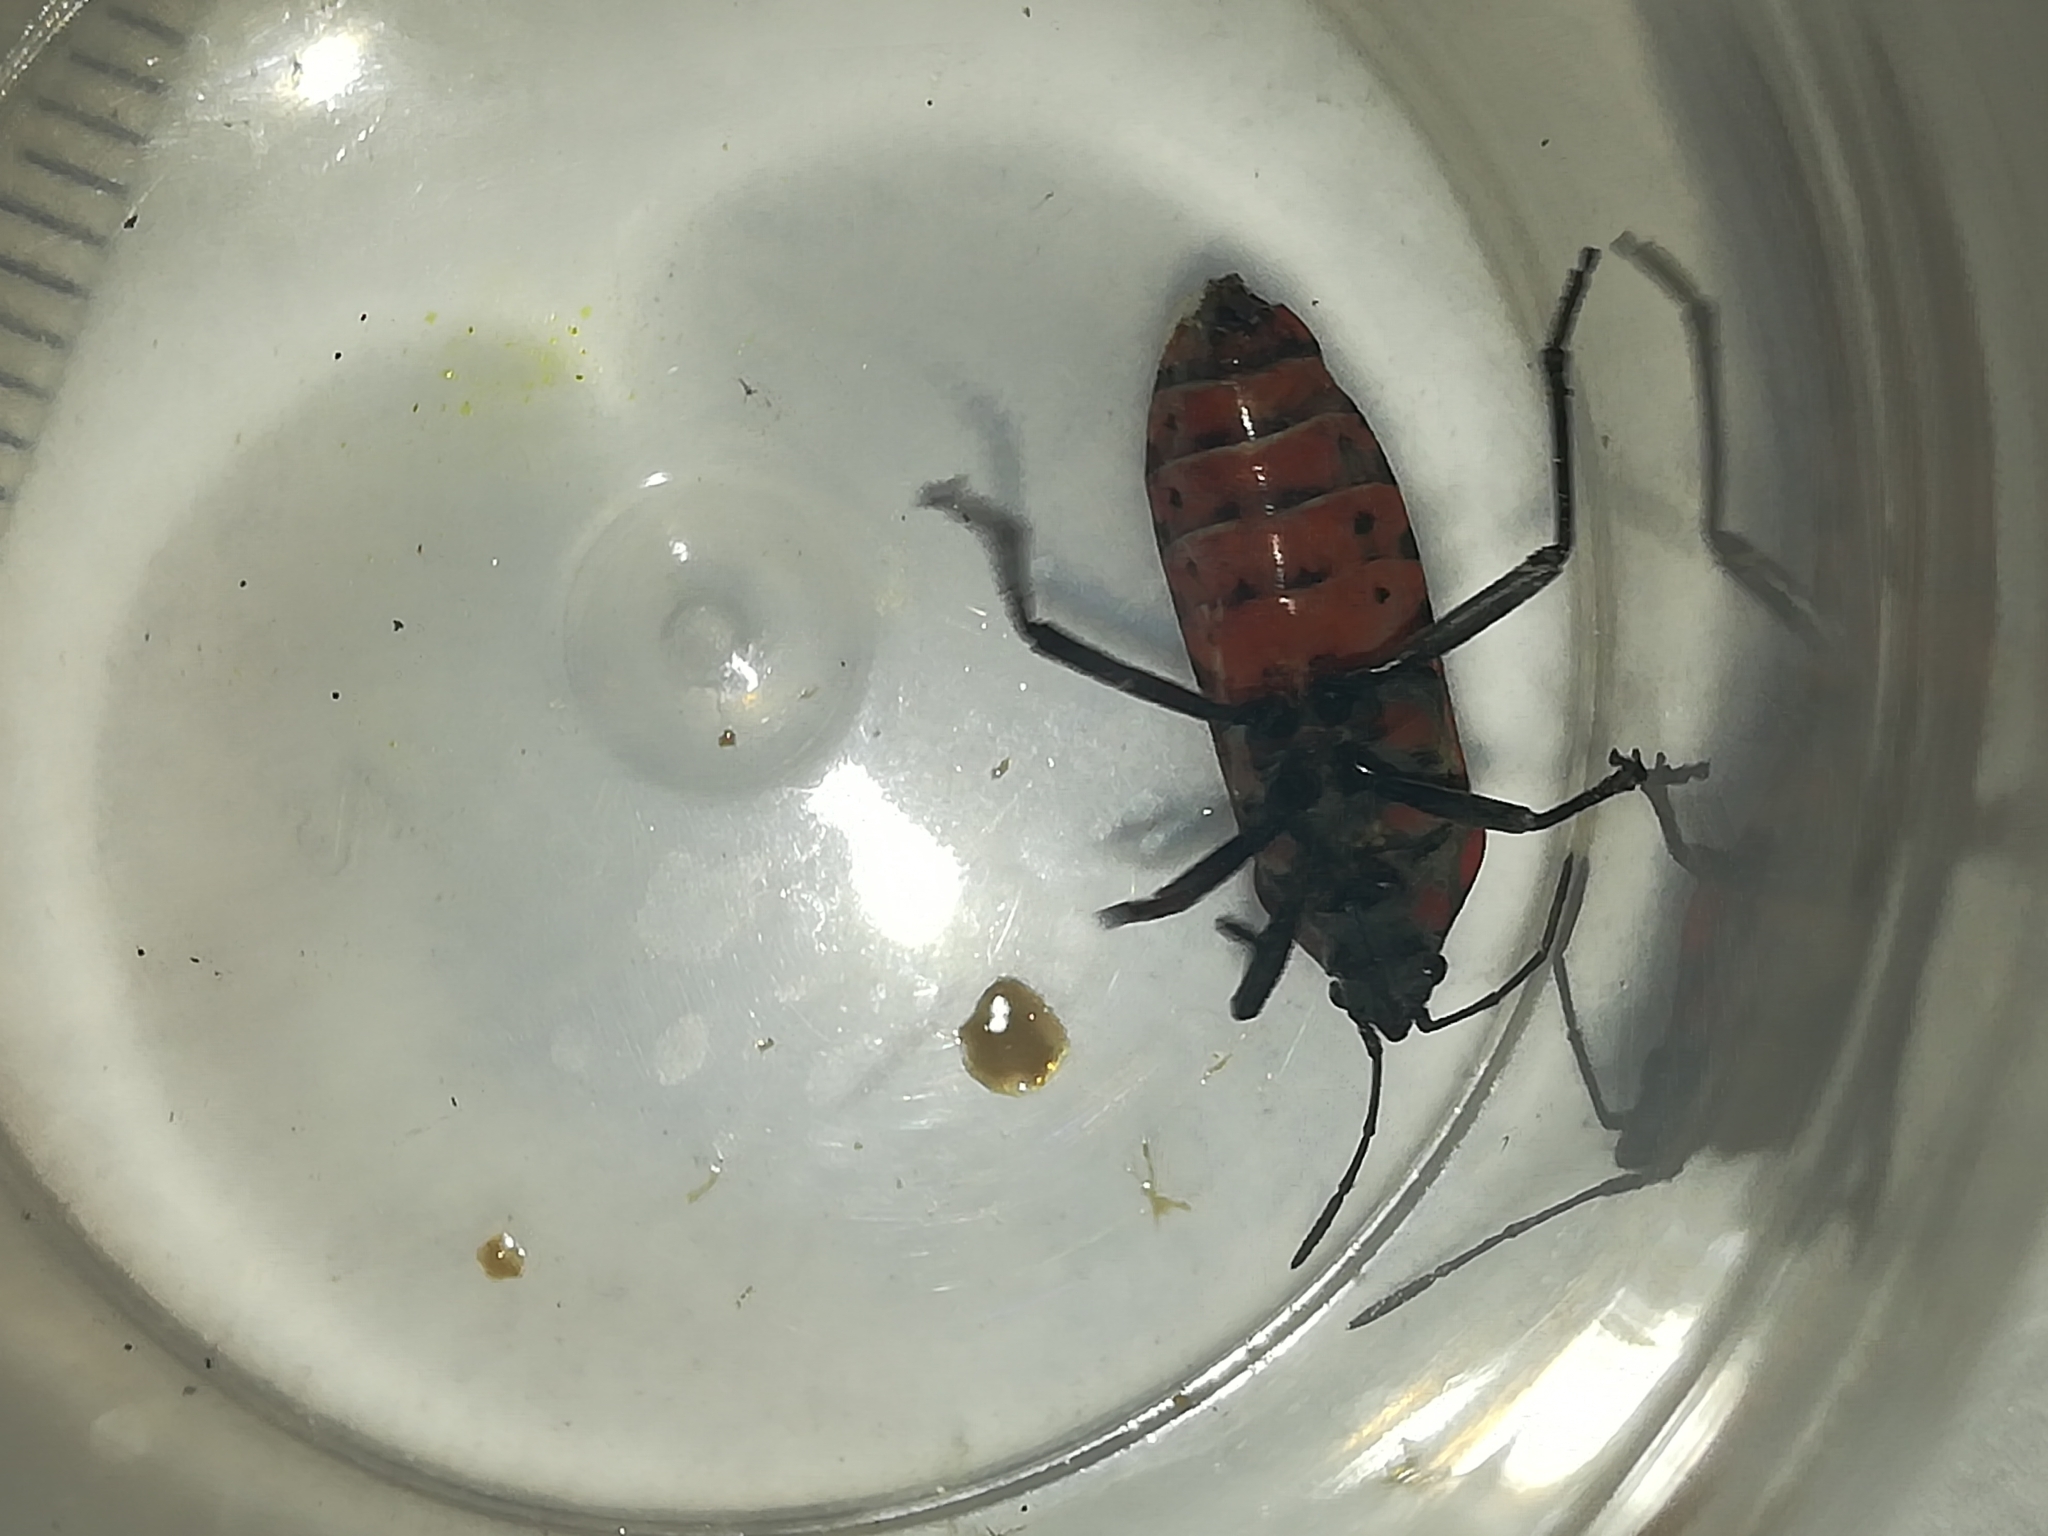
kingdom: Animalia
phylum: Arthropoda
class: Insecta
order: Hemiptera
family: Lygaeidae
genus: Spilostethus
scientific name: Spilostethus pandurus
